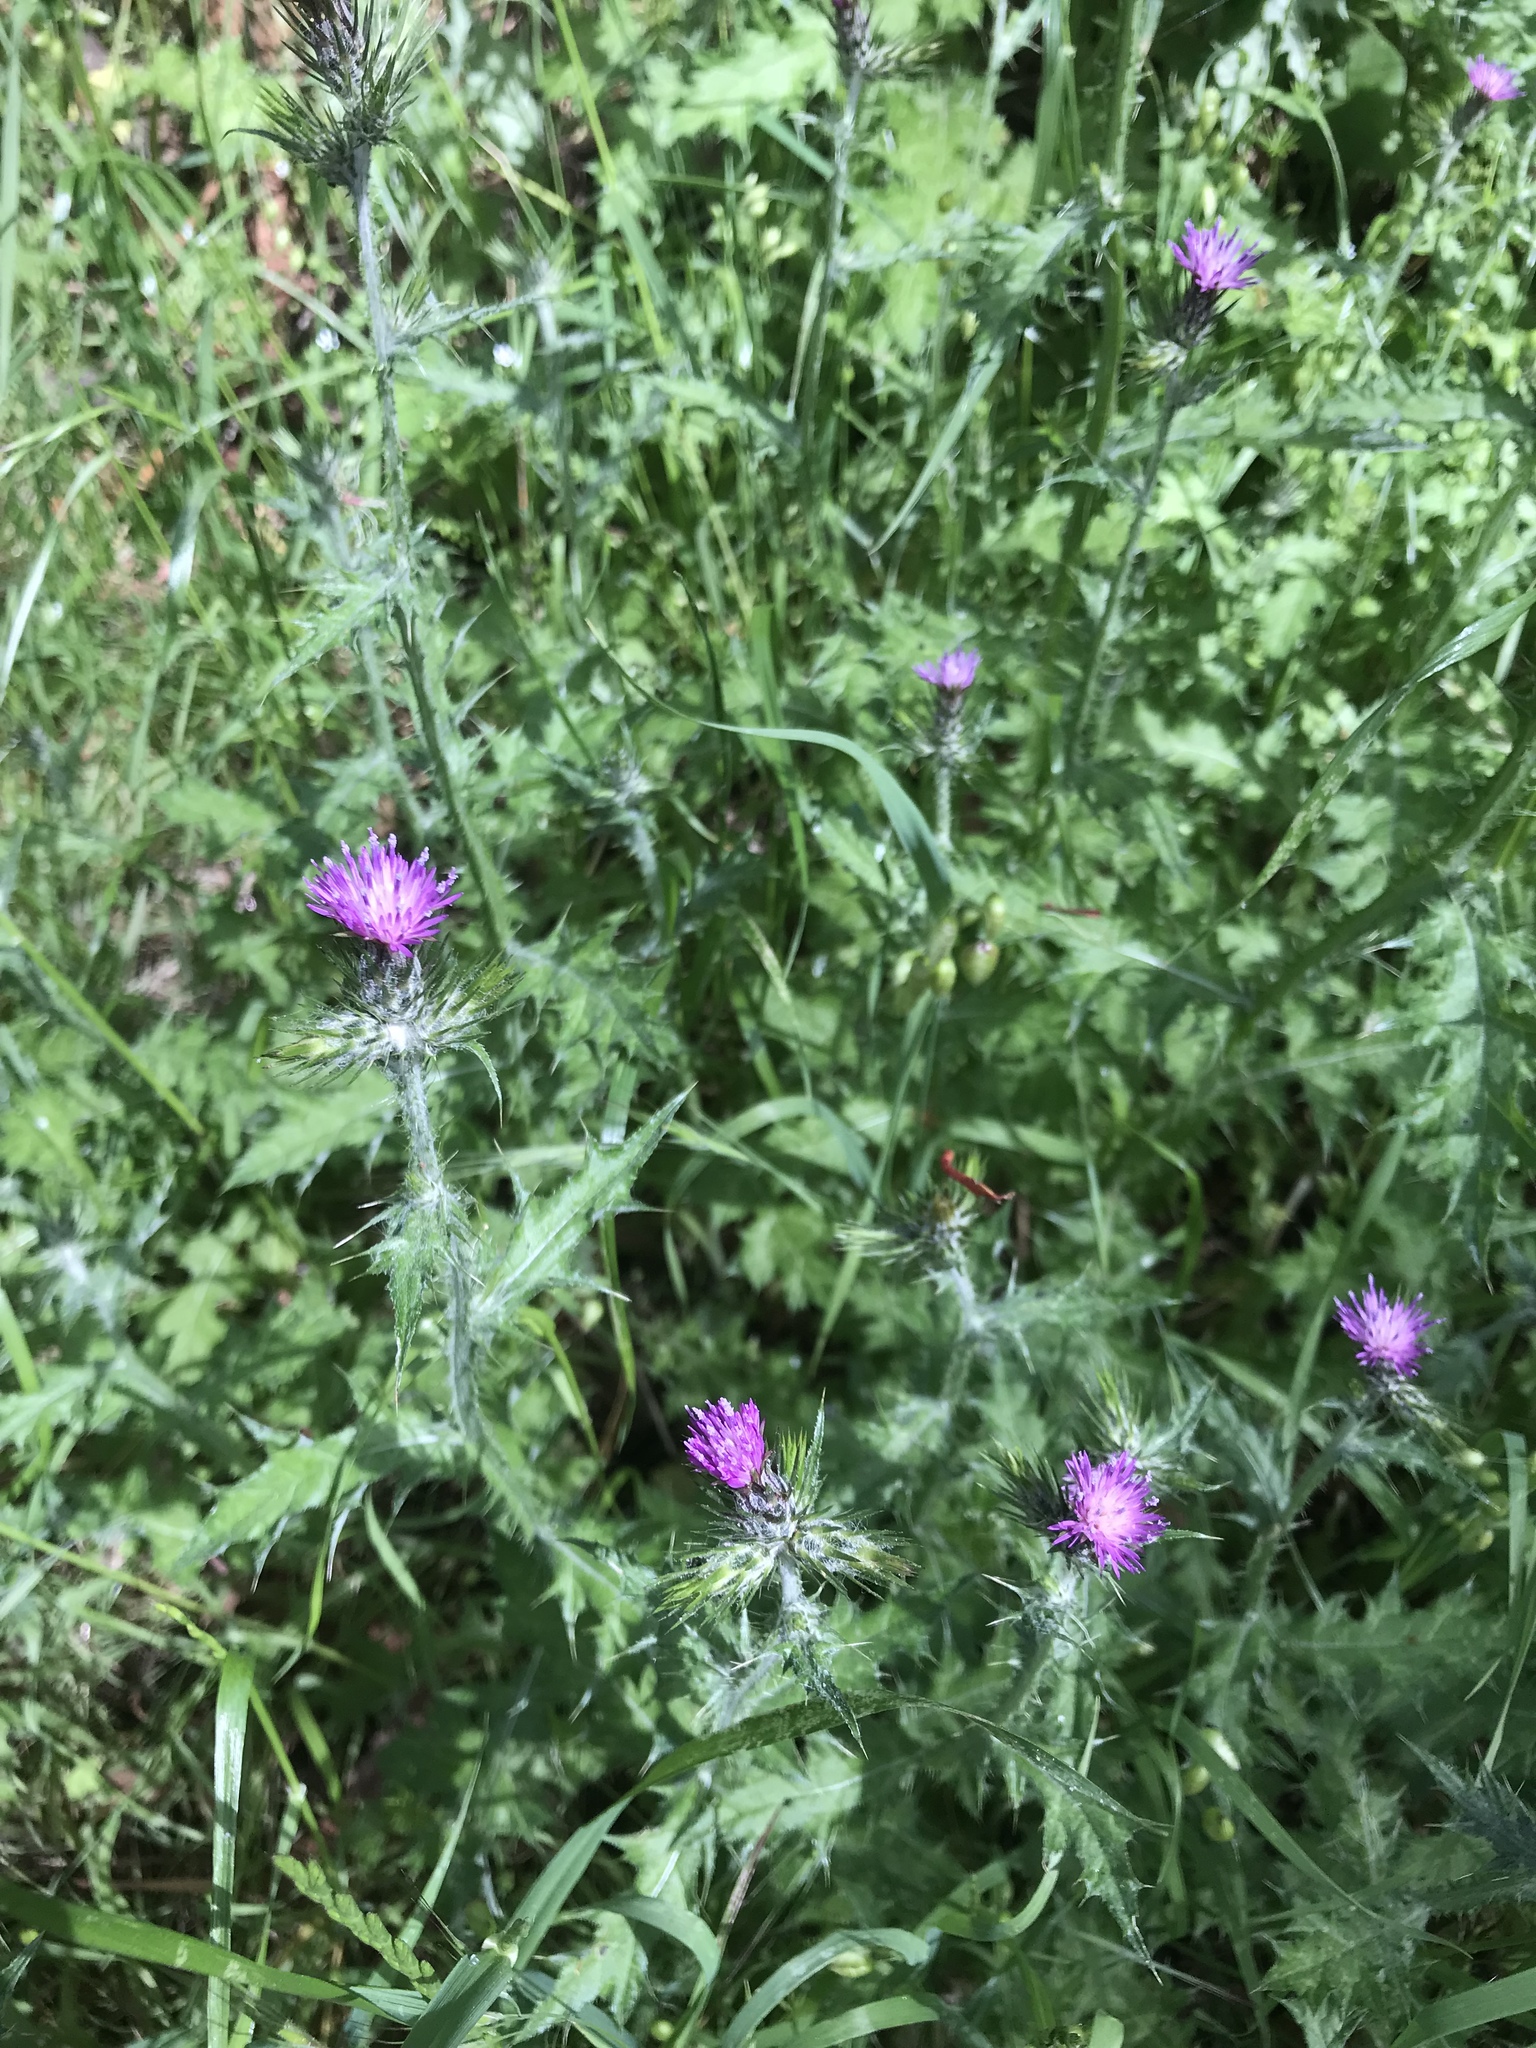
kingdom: Plantae
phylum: Tracheophyta
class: Magnoliopsida
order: Asterales
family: Asteraceae
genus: Carduus
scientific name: Carduus pycnocephalus
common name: Plymouth thistle
